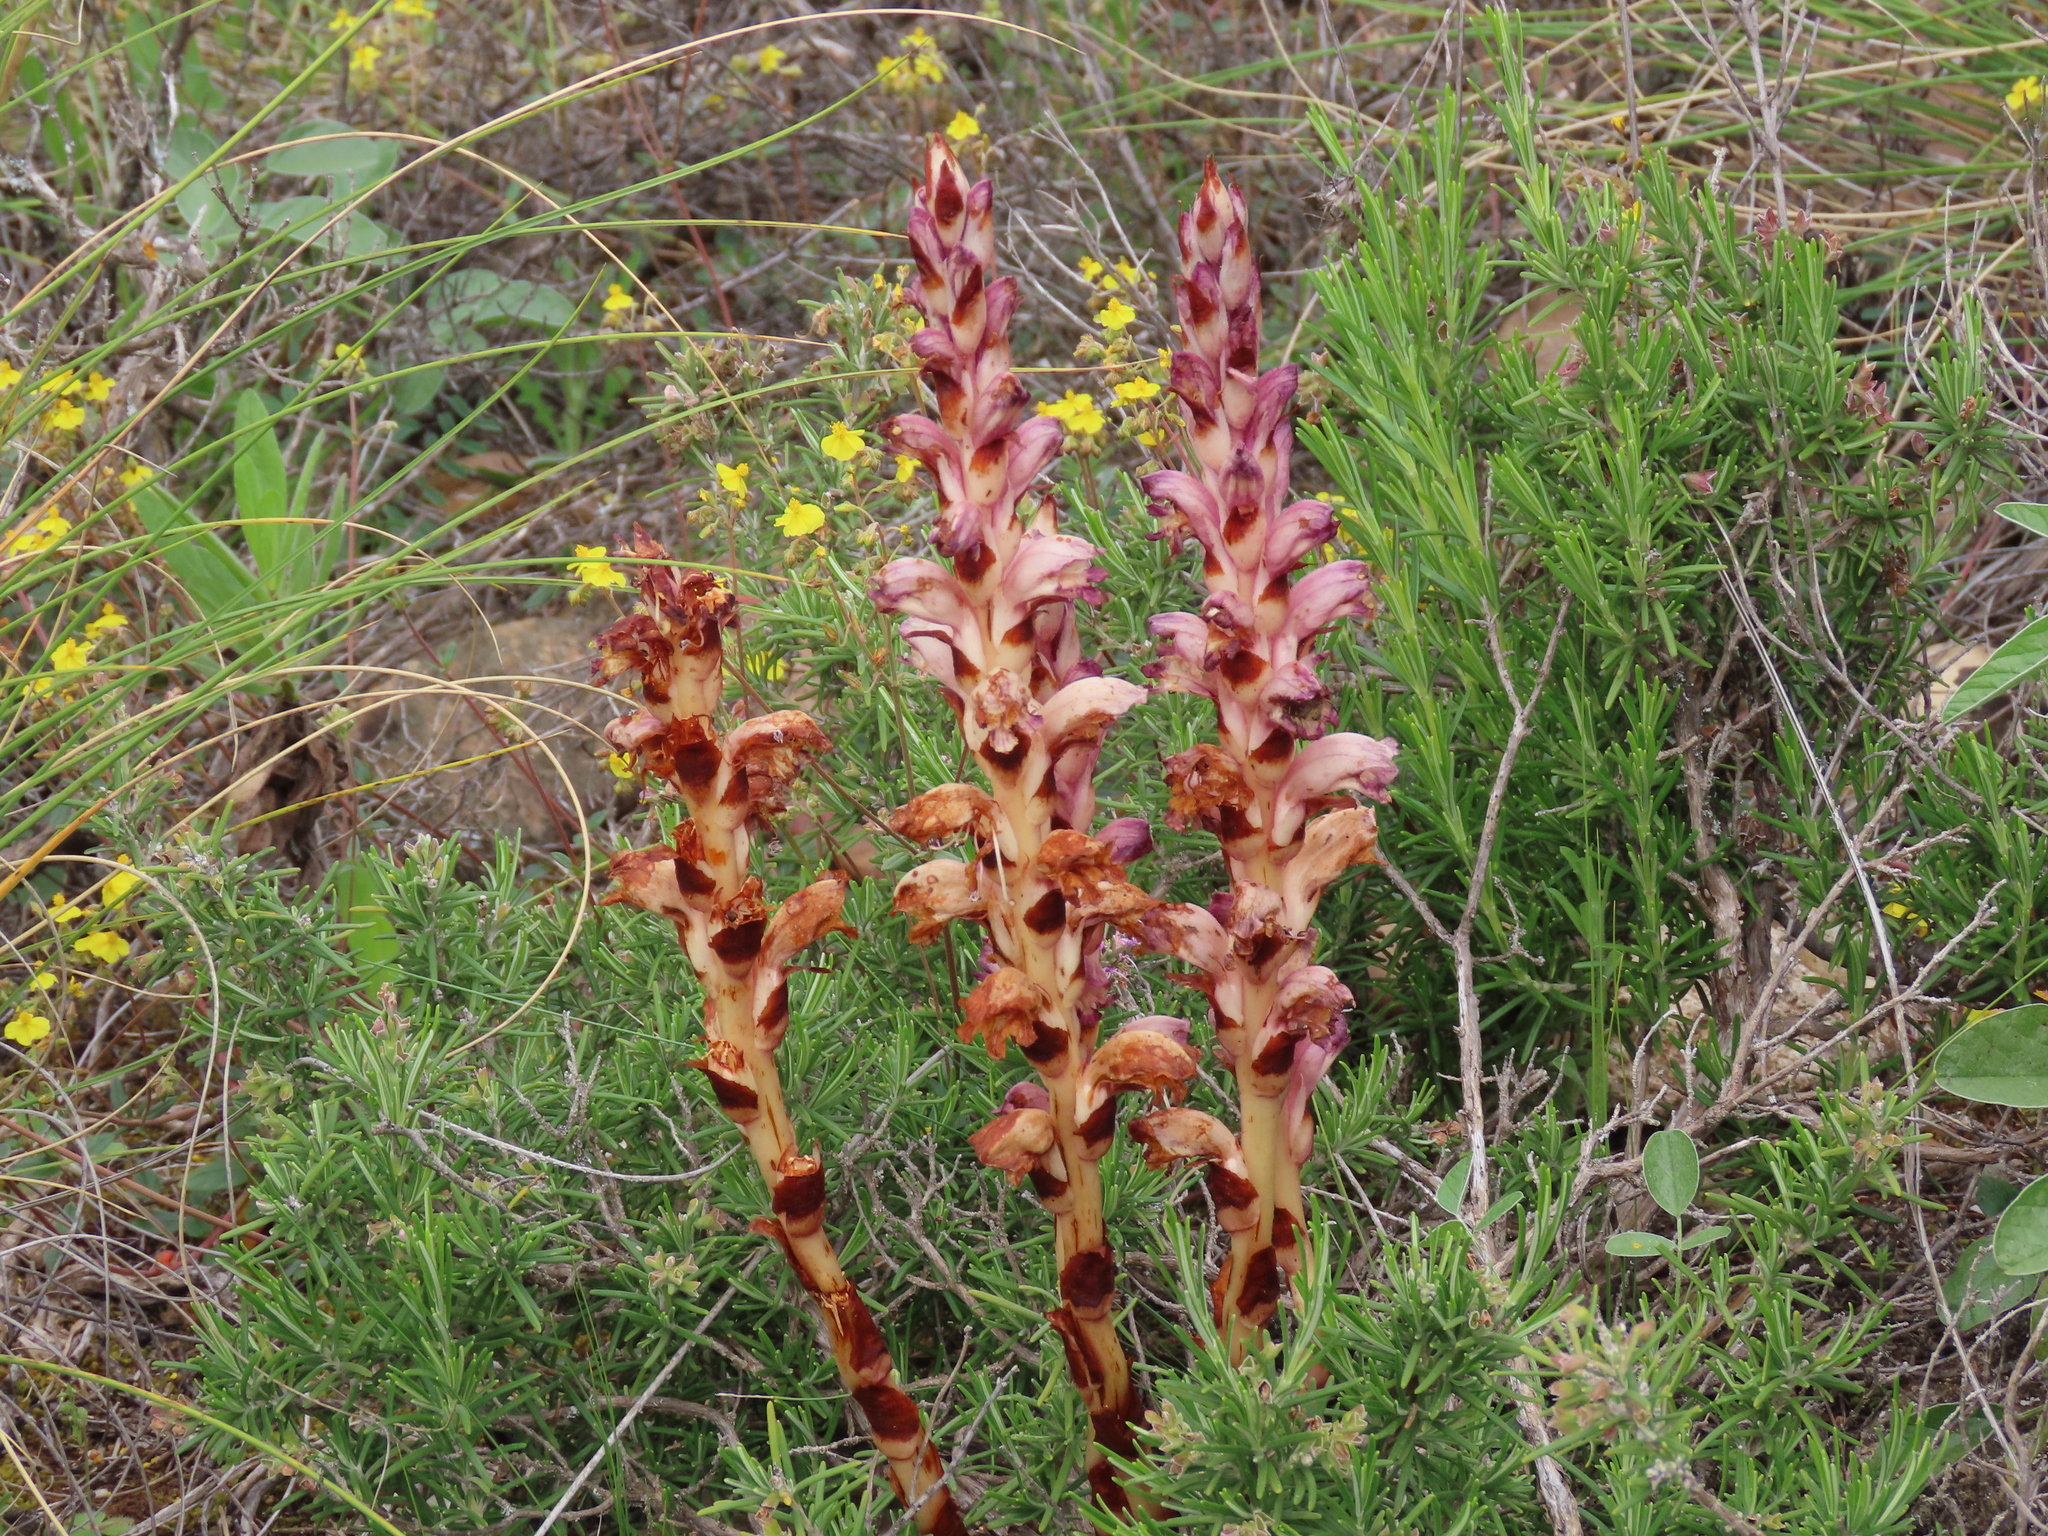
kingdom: Plantae
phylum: Tracheophyta
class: Magnoliopsida
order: Lamiales
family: Orobanchaceae
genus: Boulardia
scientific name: Boulardia latisquama
